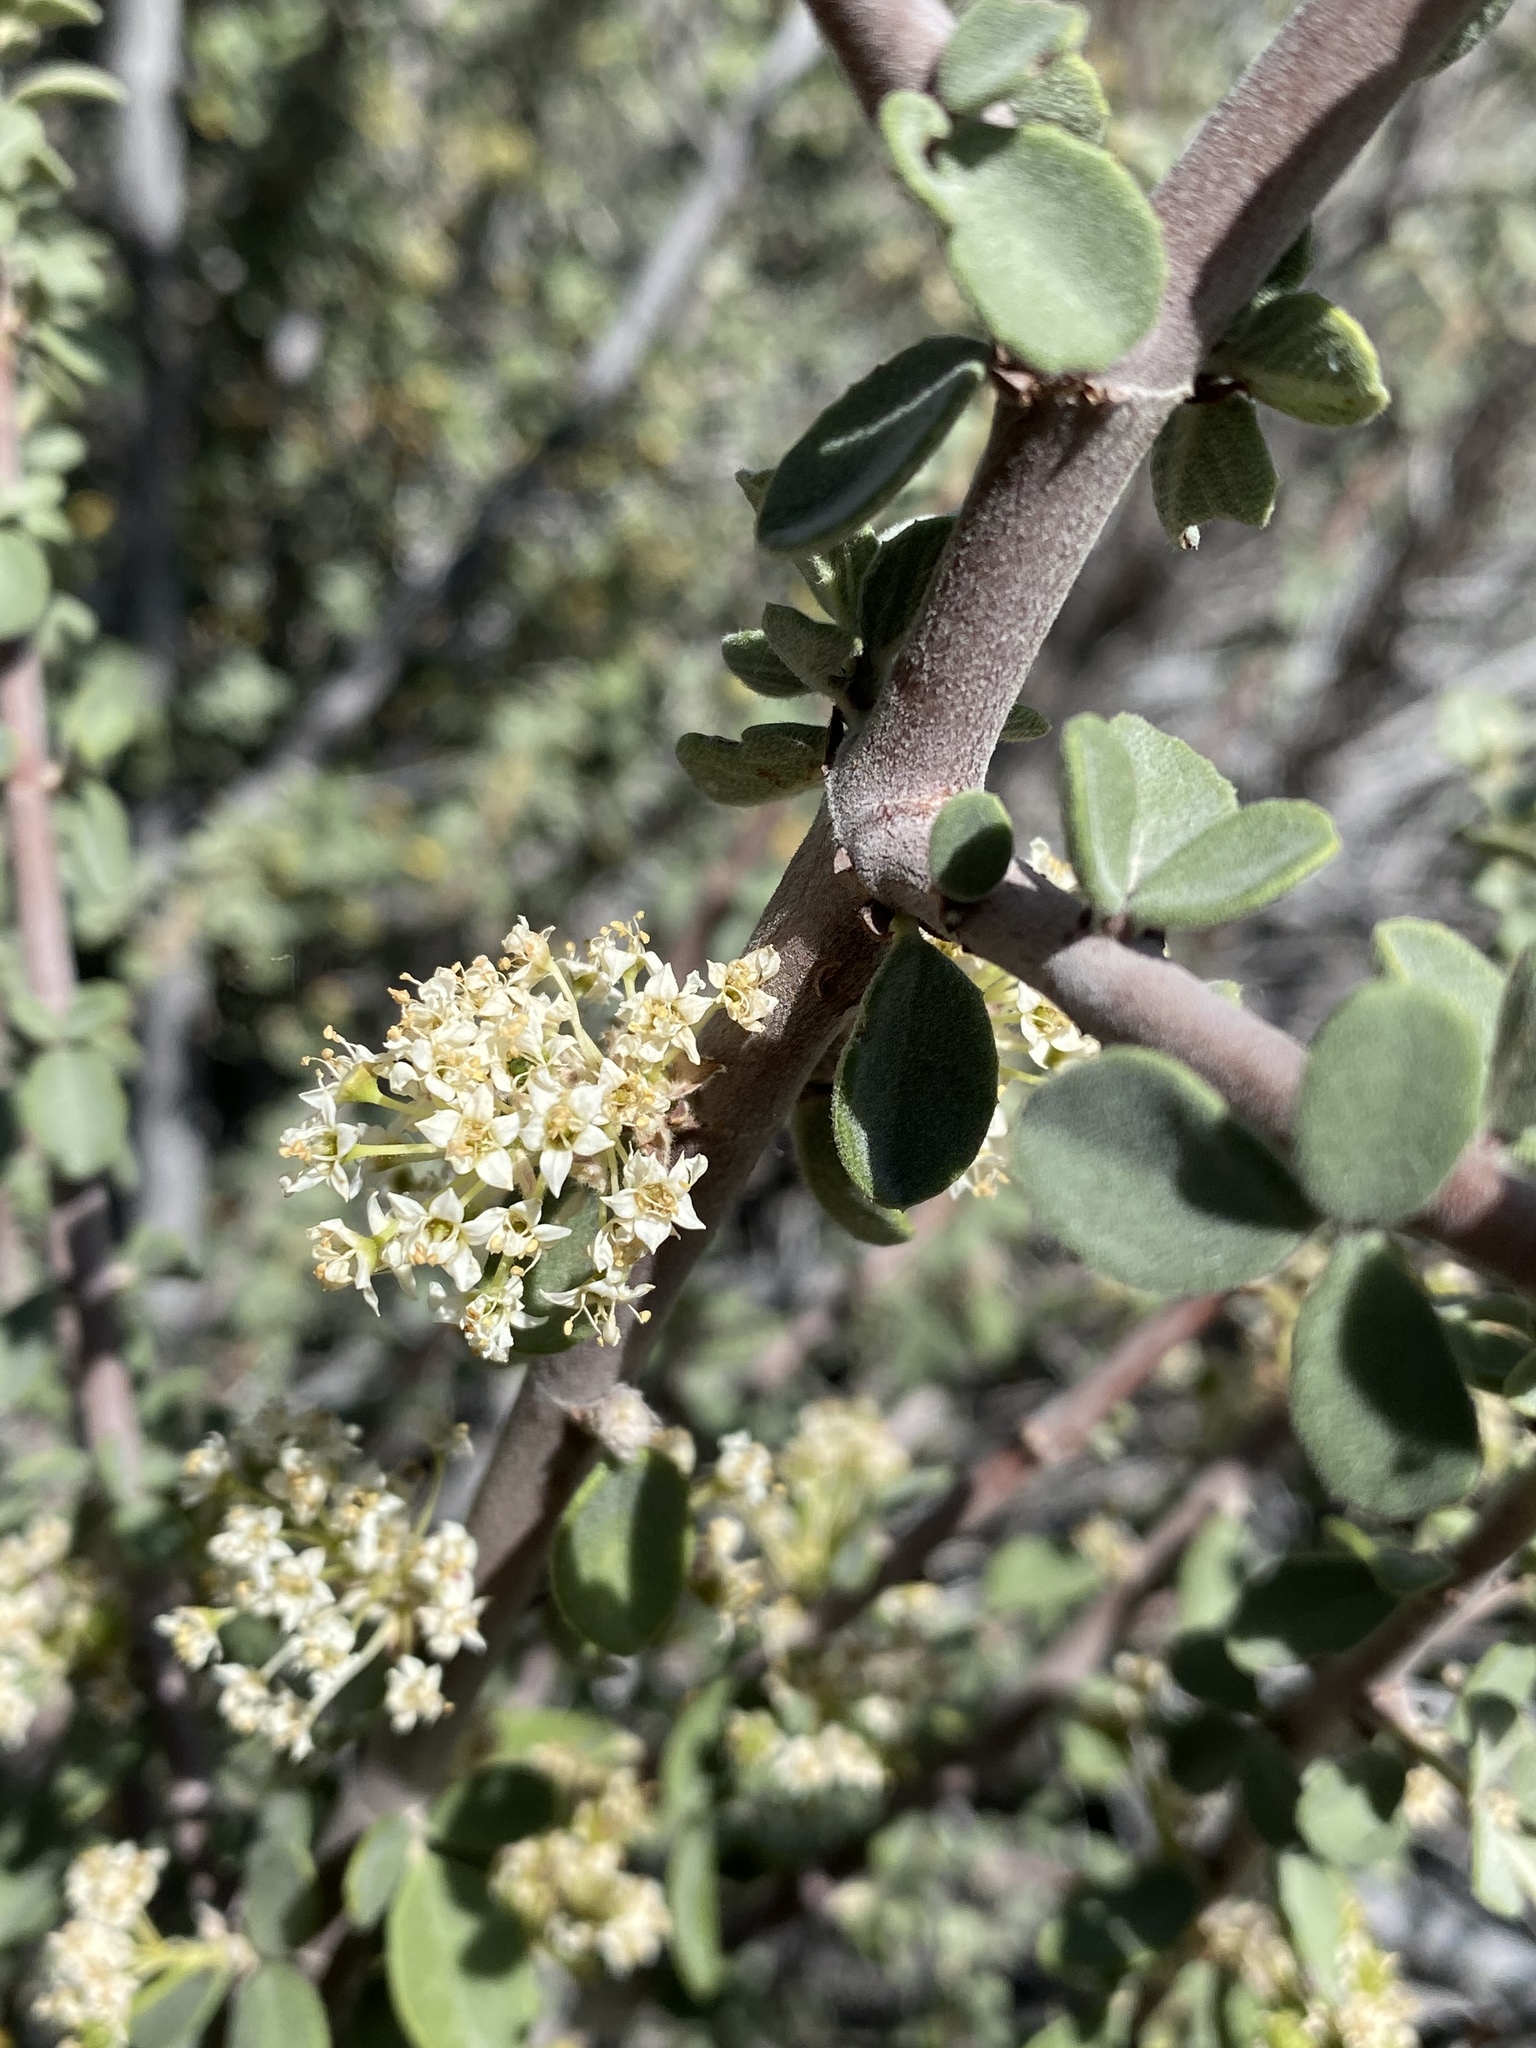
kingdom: Plantae
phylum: Tracheophyta
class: Magnoliopsida
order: Rosales
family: Rhamnaceae
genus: Ceanothus
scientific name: Ceanothus pauciflorus
